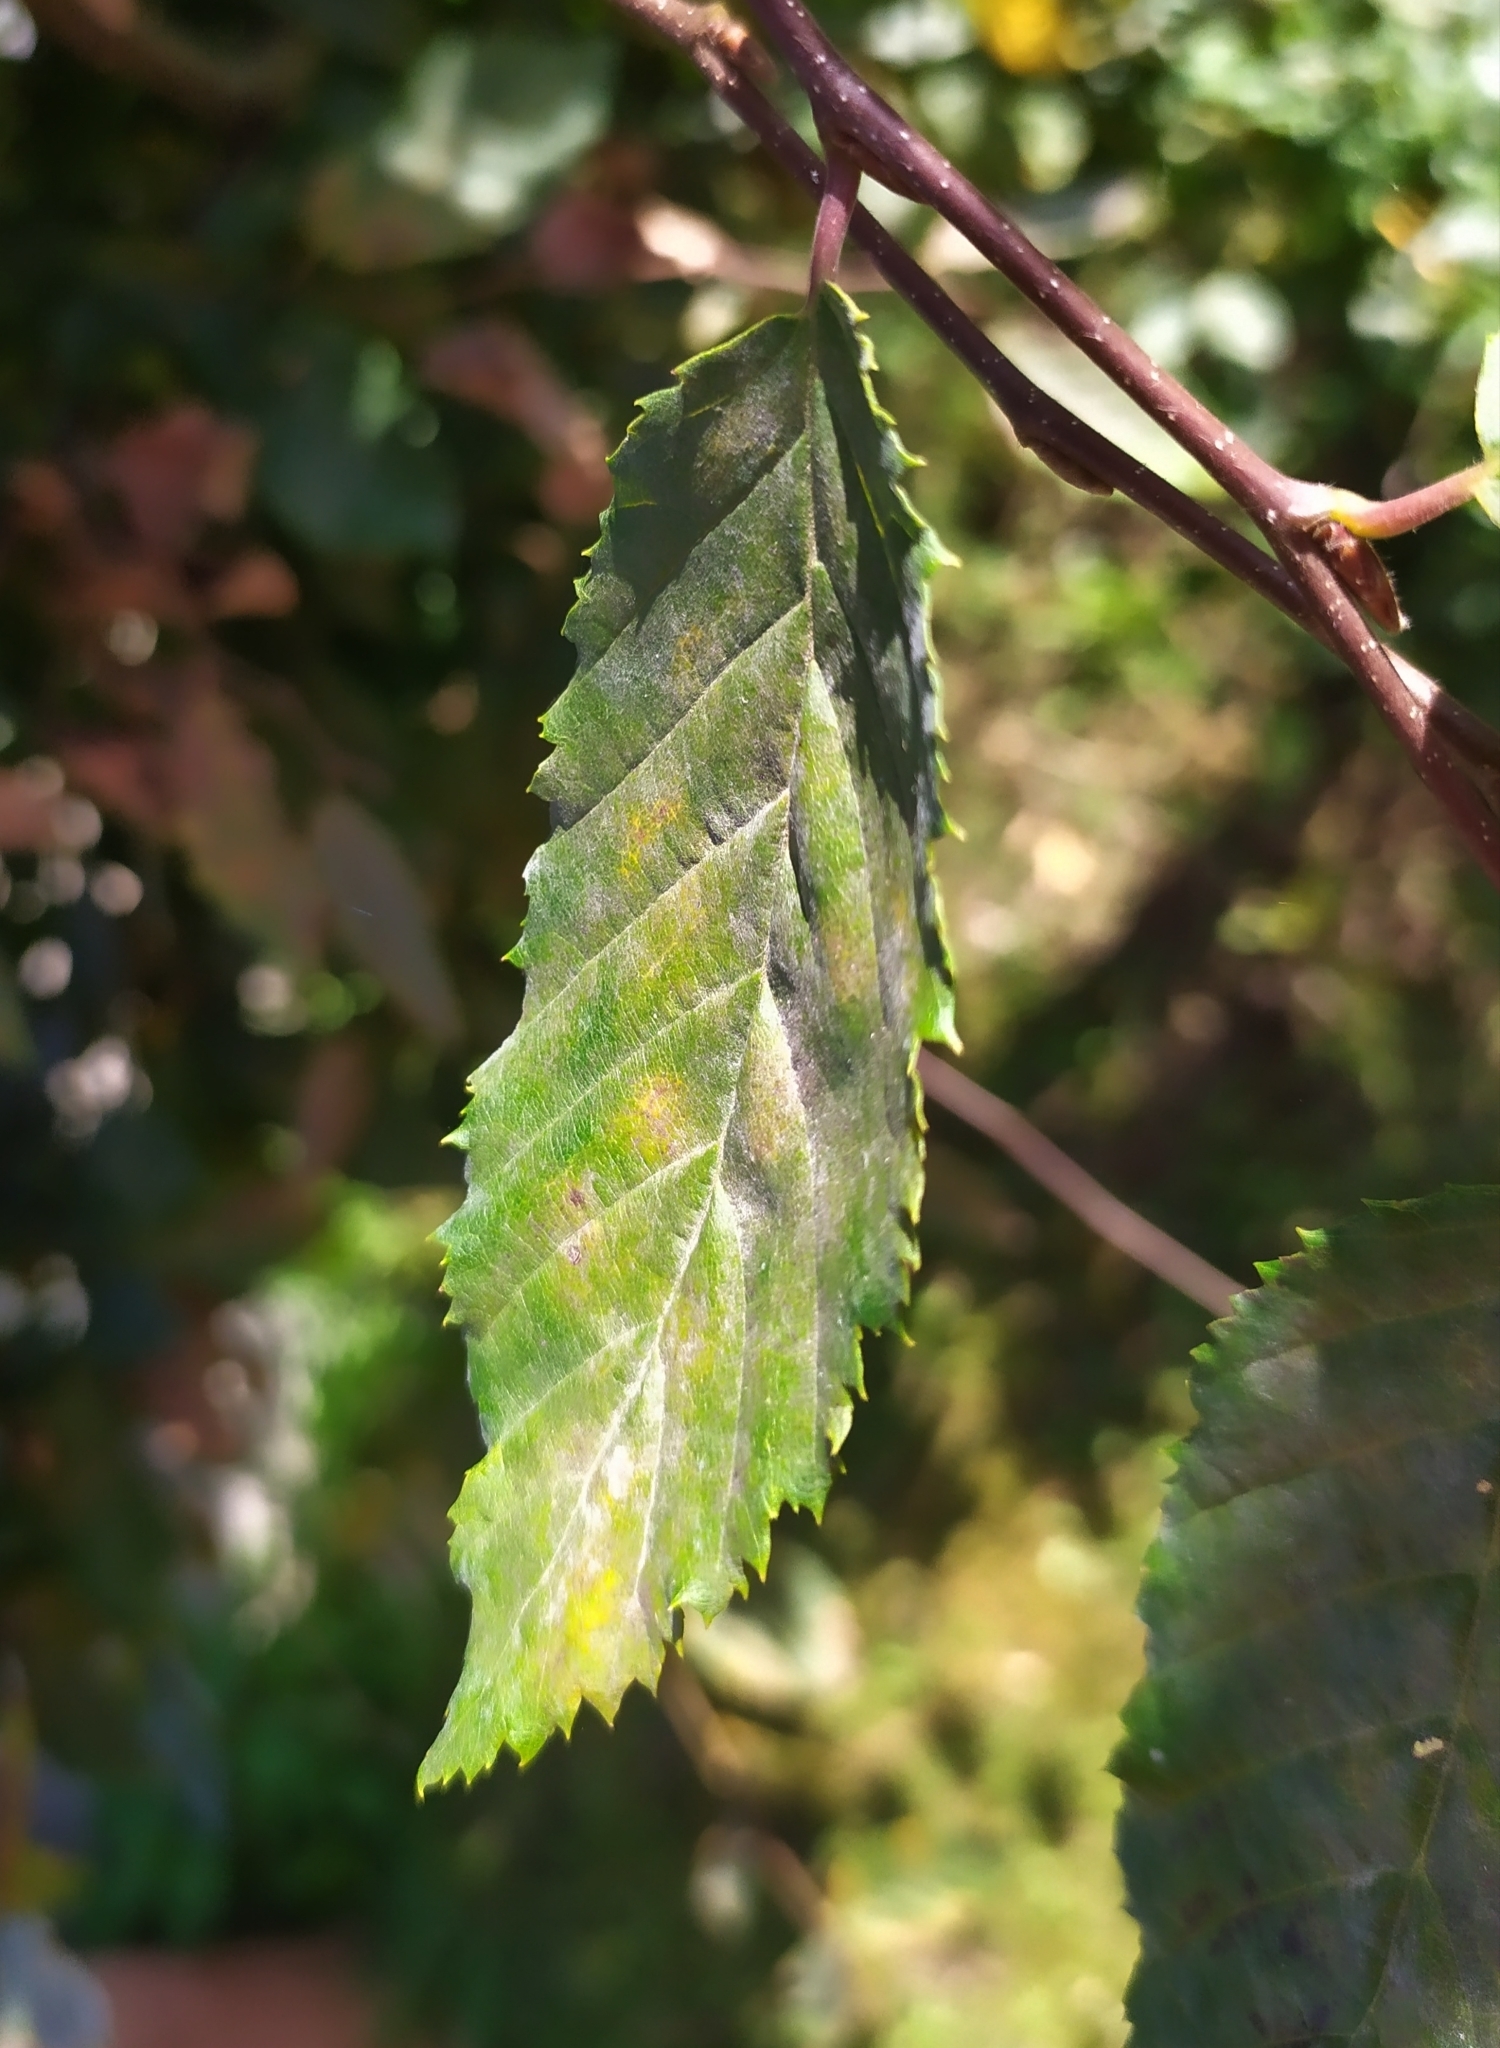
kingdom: Fungi
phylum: Ascomycota
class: Leotiomycetes
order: Helotiales
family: Erysiphaceae
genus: Erysiphe
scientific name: Erysiphe arcuata
